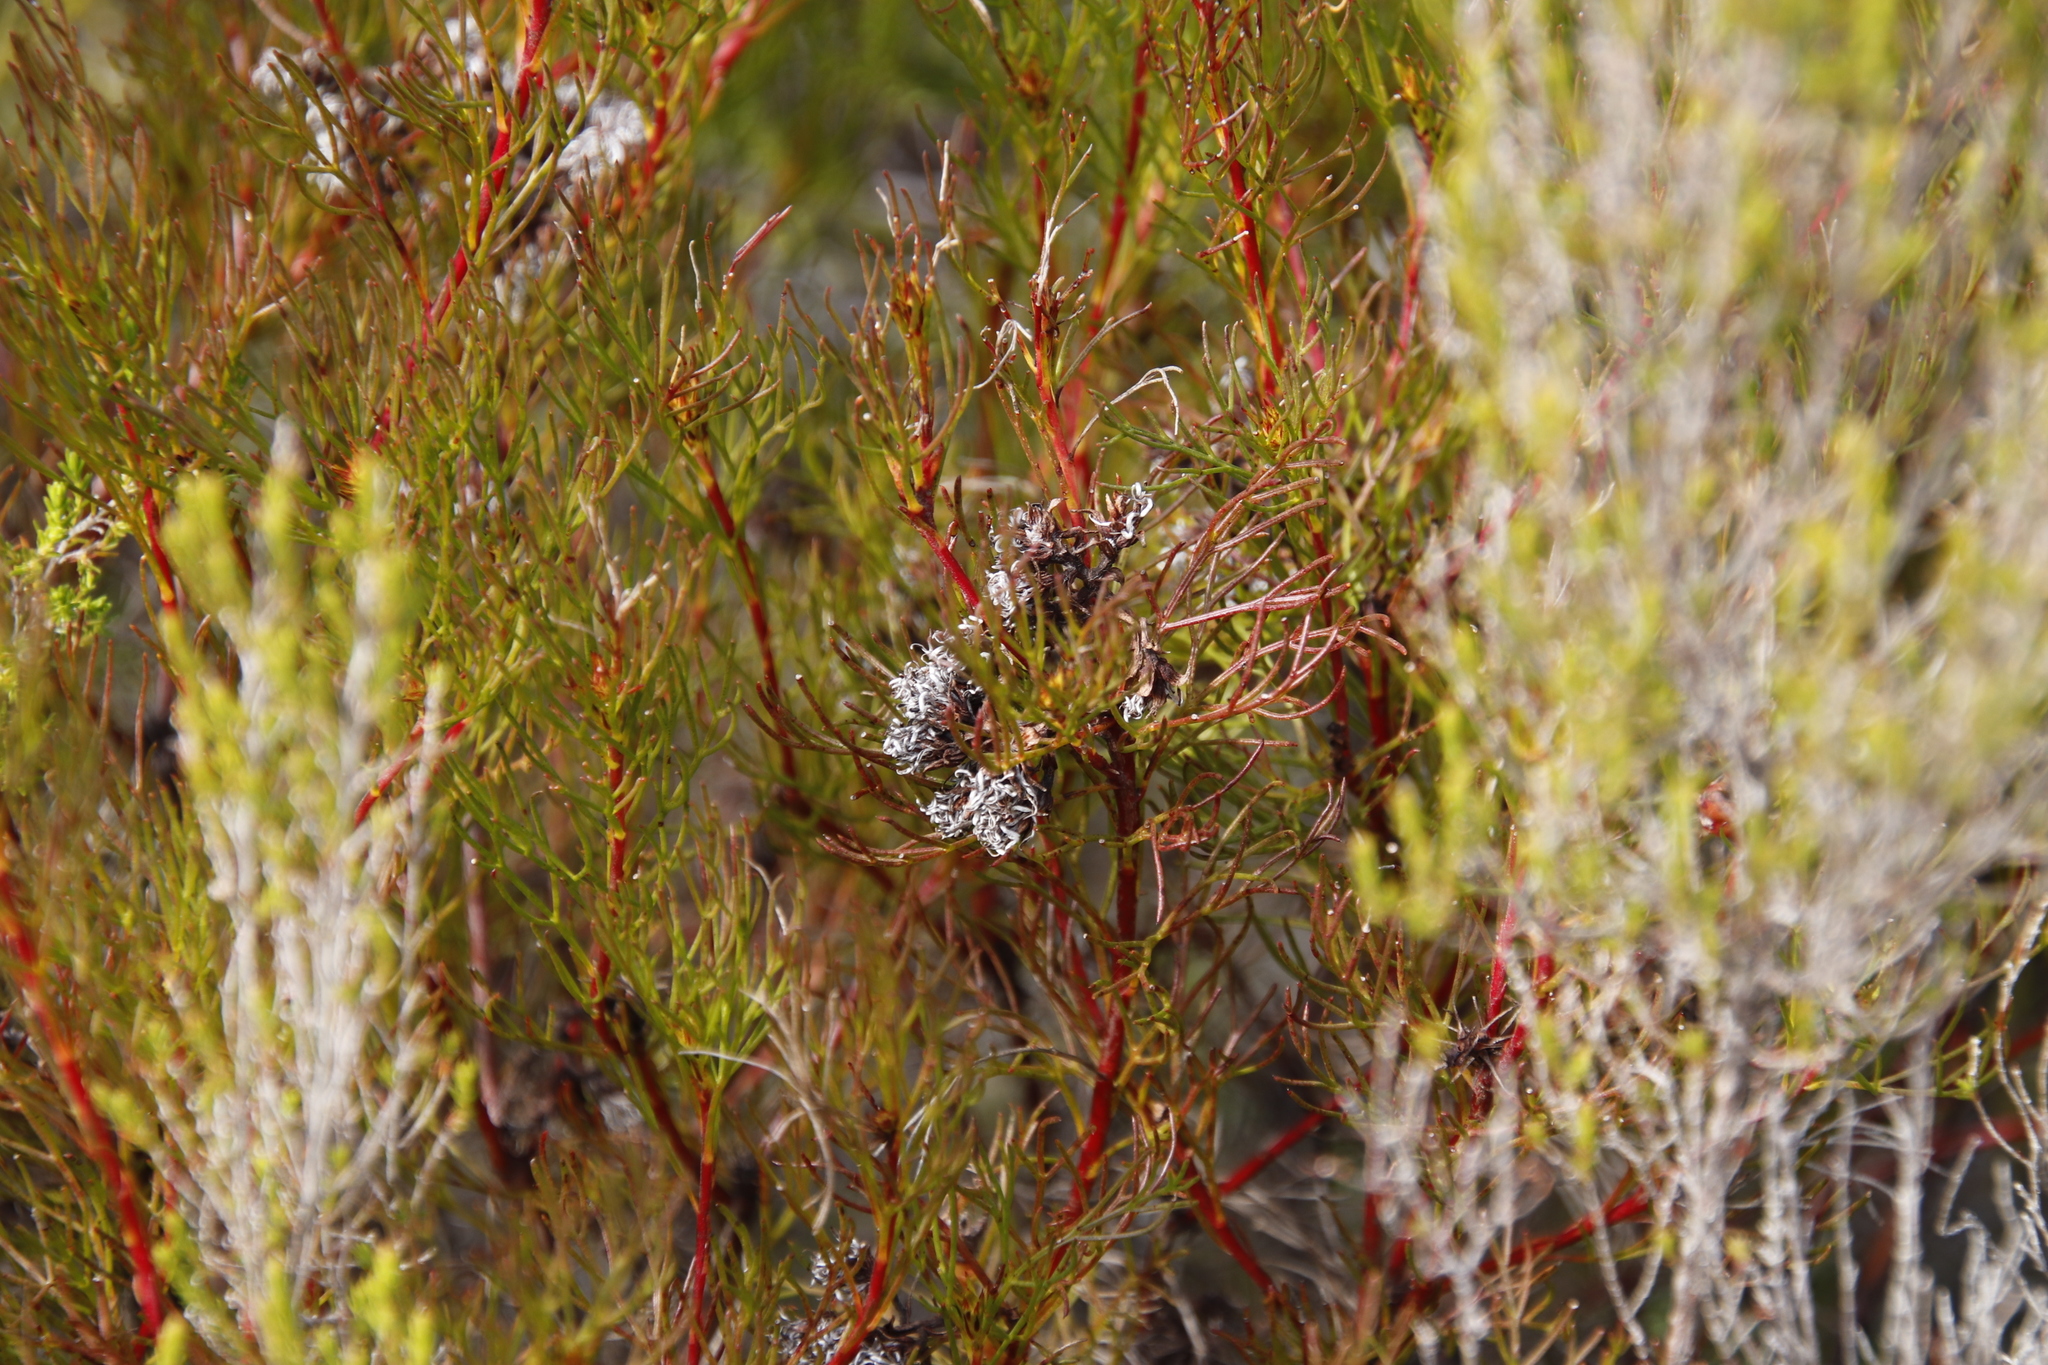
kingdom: Plantae
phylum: Tracheophyta
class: Magnoliopsida
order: Proteales
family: Proteaceae
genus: Serruria
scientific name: Serruria bolusii
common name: Agulhas spiderhead
